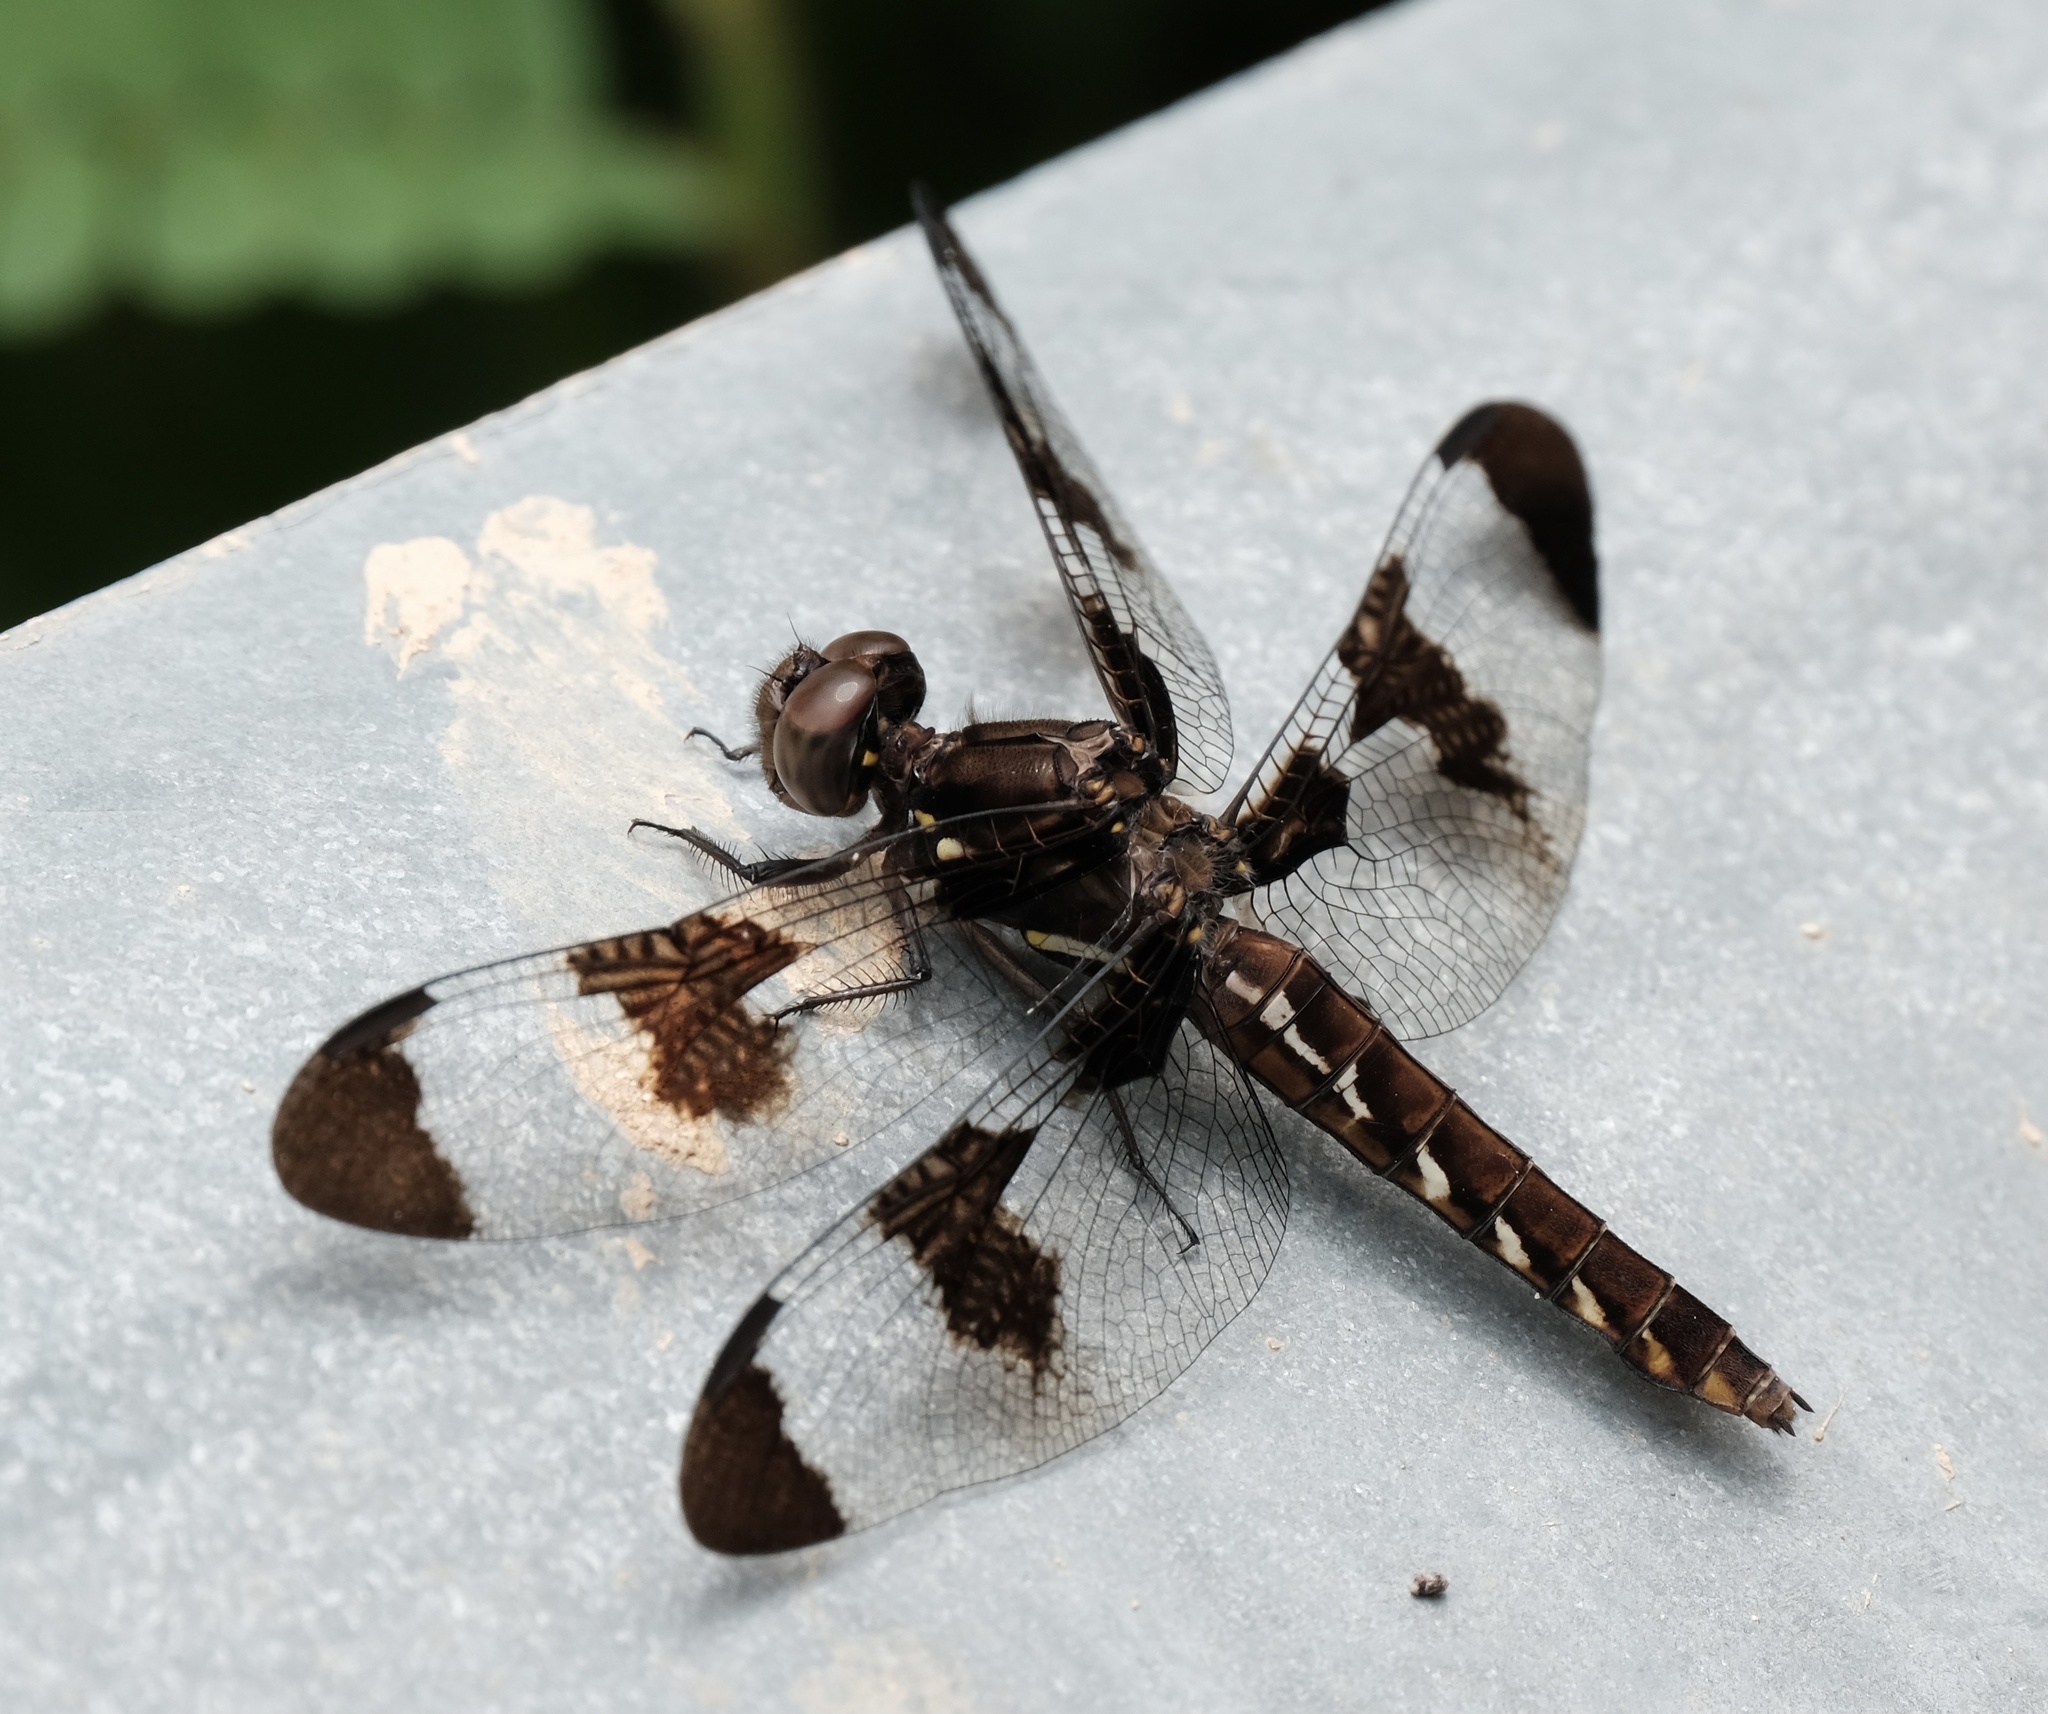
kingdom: Animalia
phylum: Arthropoda
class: Insecta
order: Odonata
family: Libellulidae
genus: Plathemis
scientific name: Plathemis lydia
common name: Common whitetail
